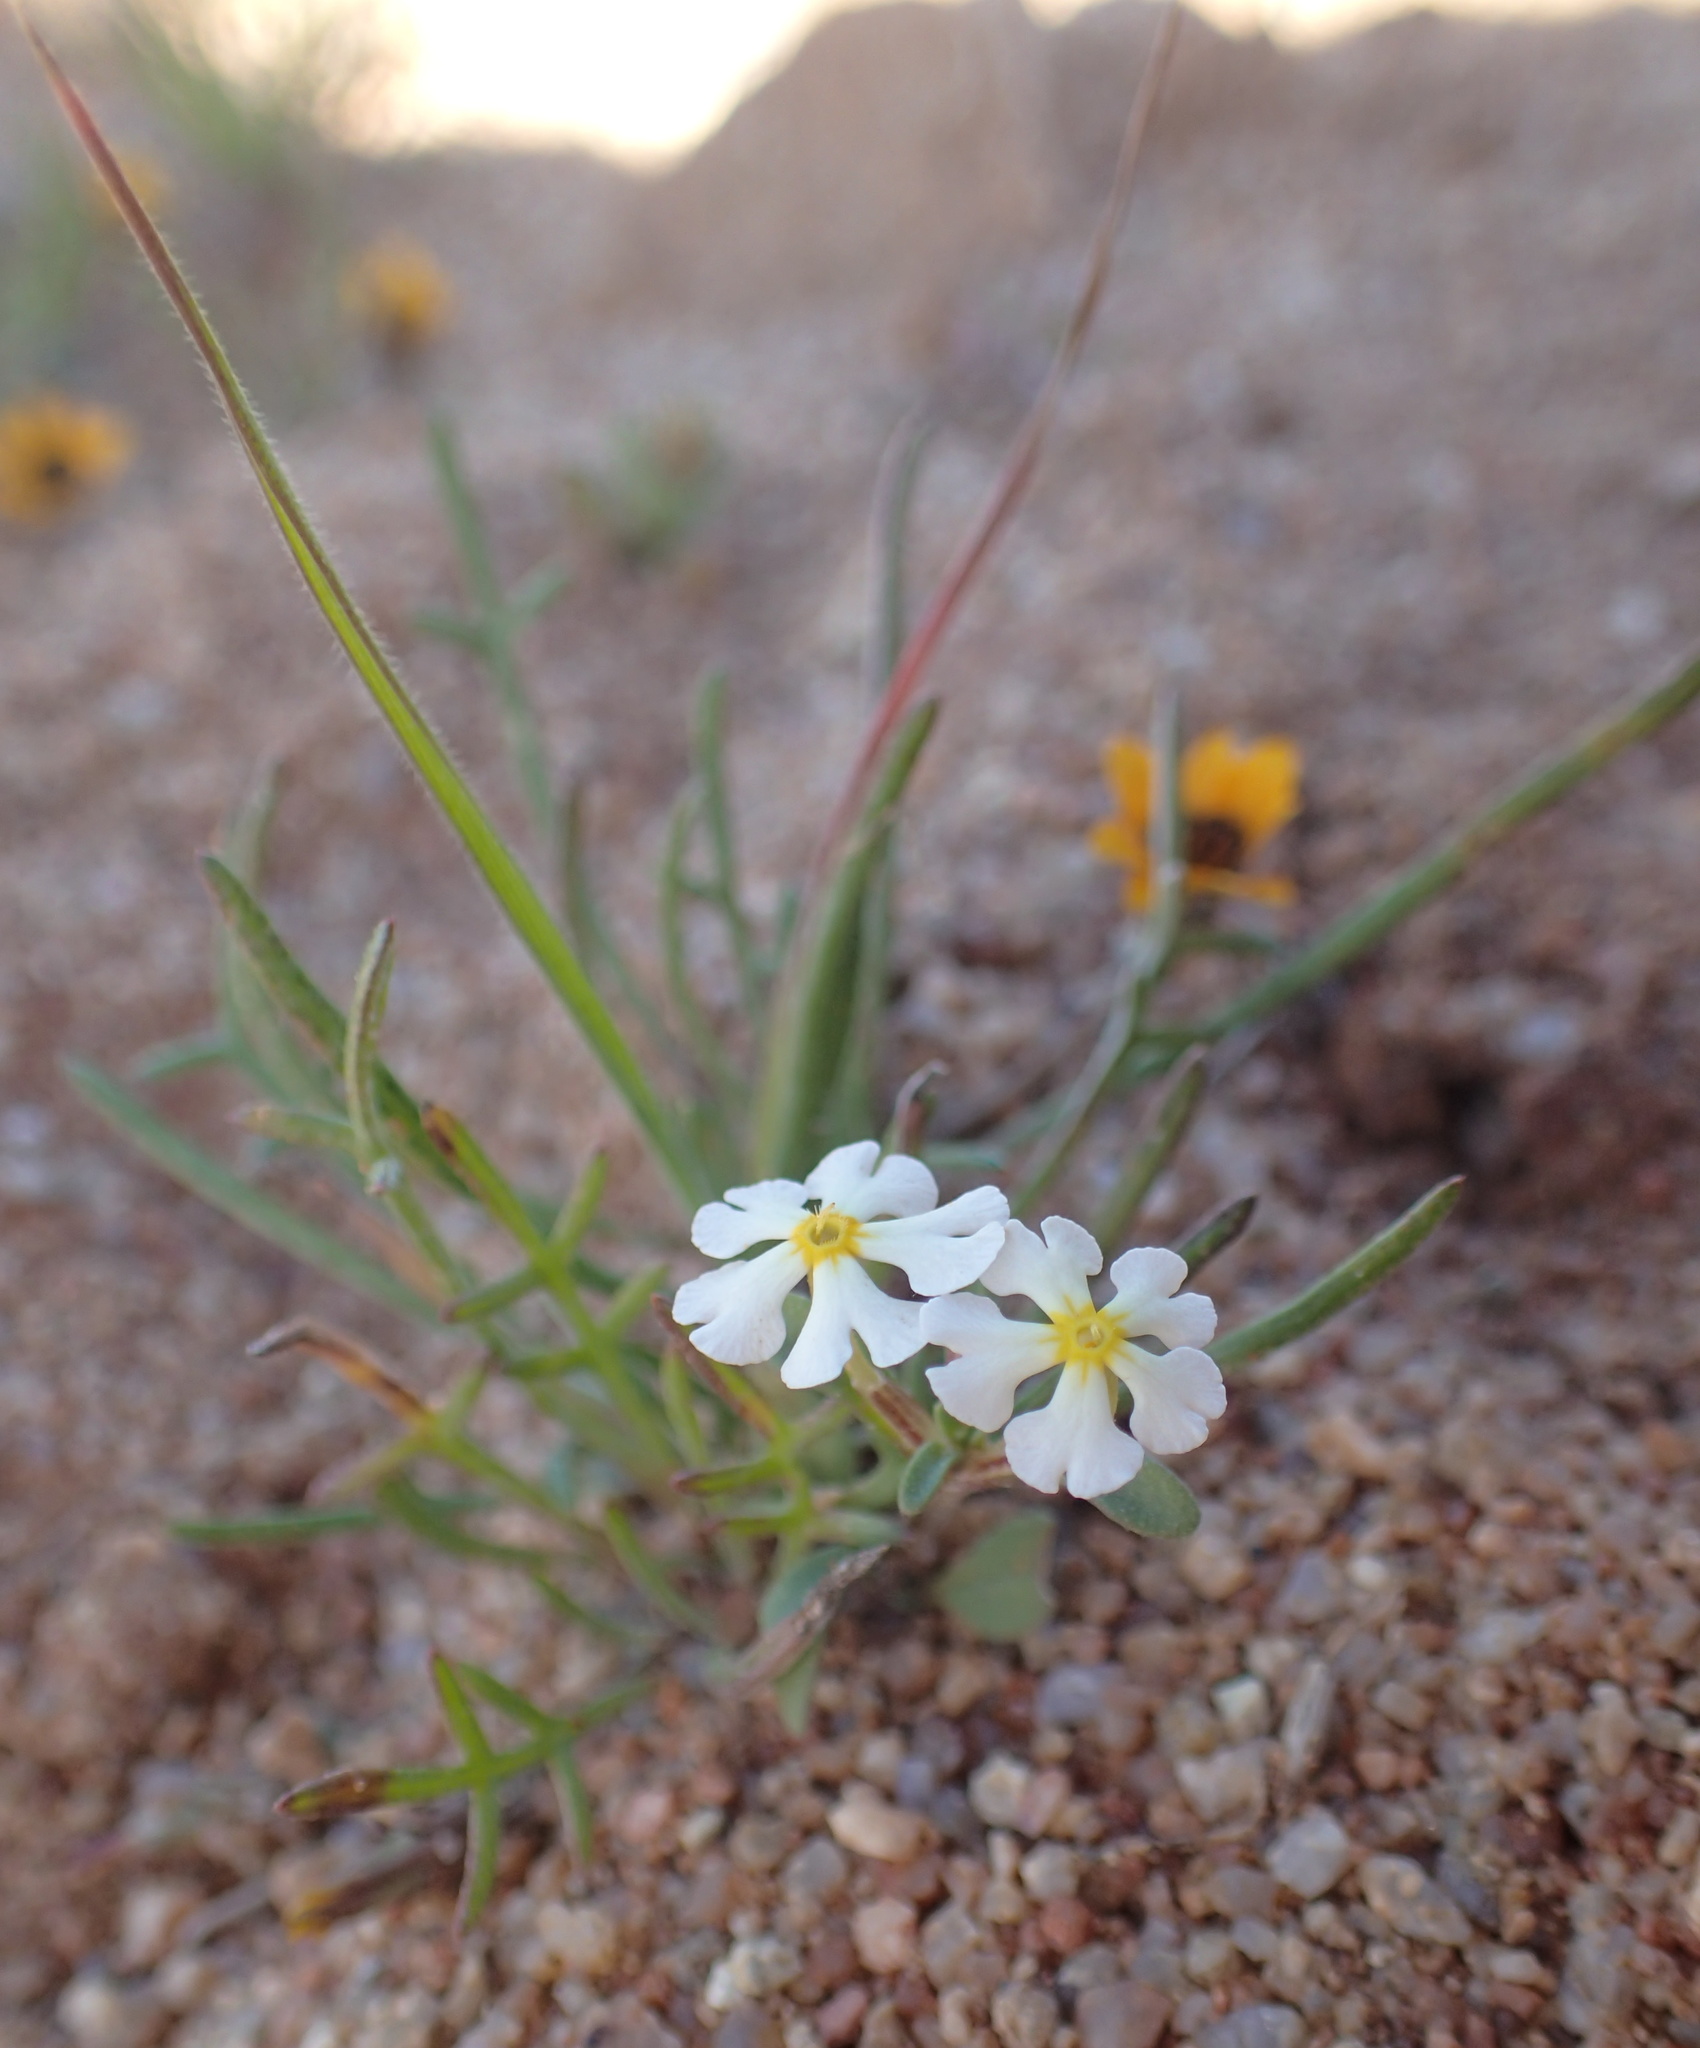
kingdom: Plantae
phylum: Tracheophyta
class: Magnoliopsida
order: Lamiales
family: Scrophulariaceae
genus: Zaluzianskya
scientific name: Zaluzianskya affinis
